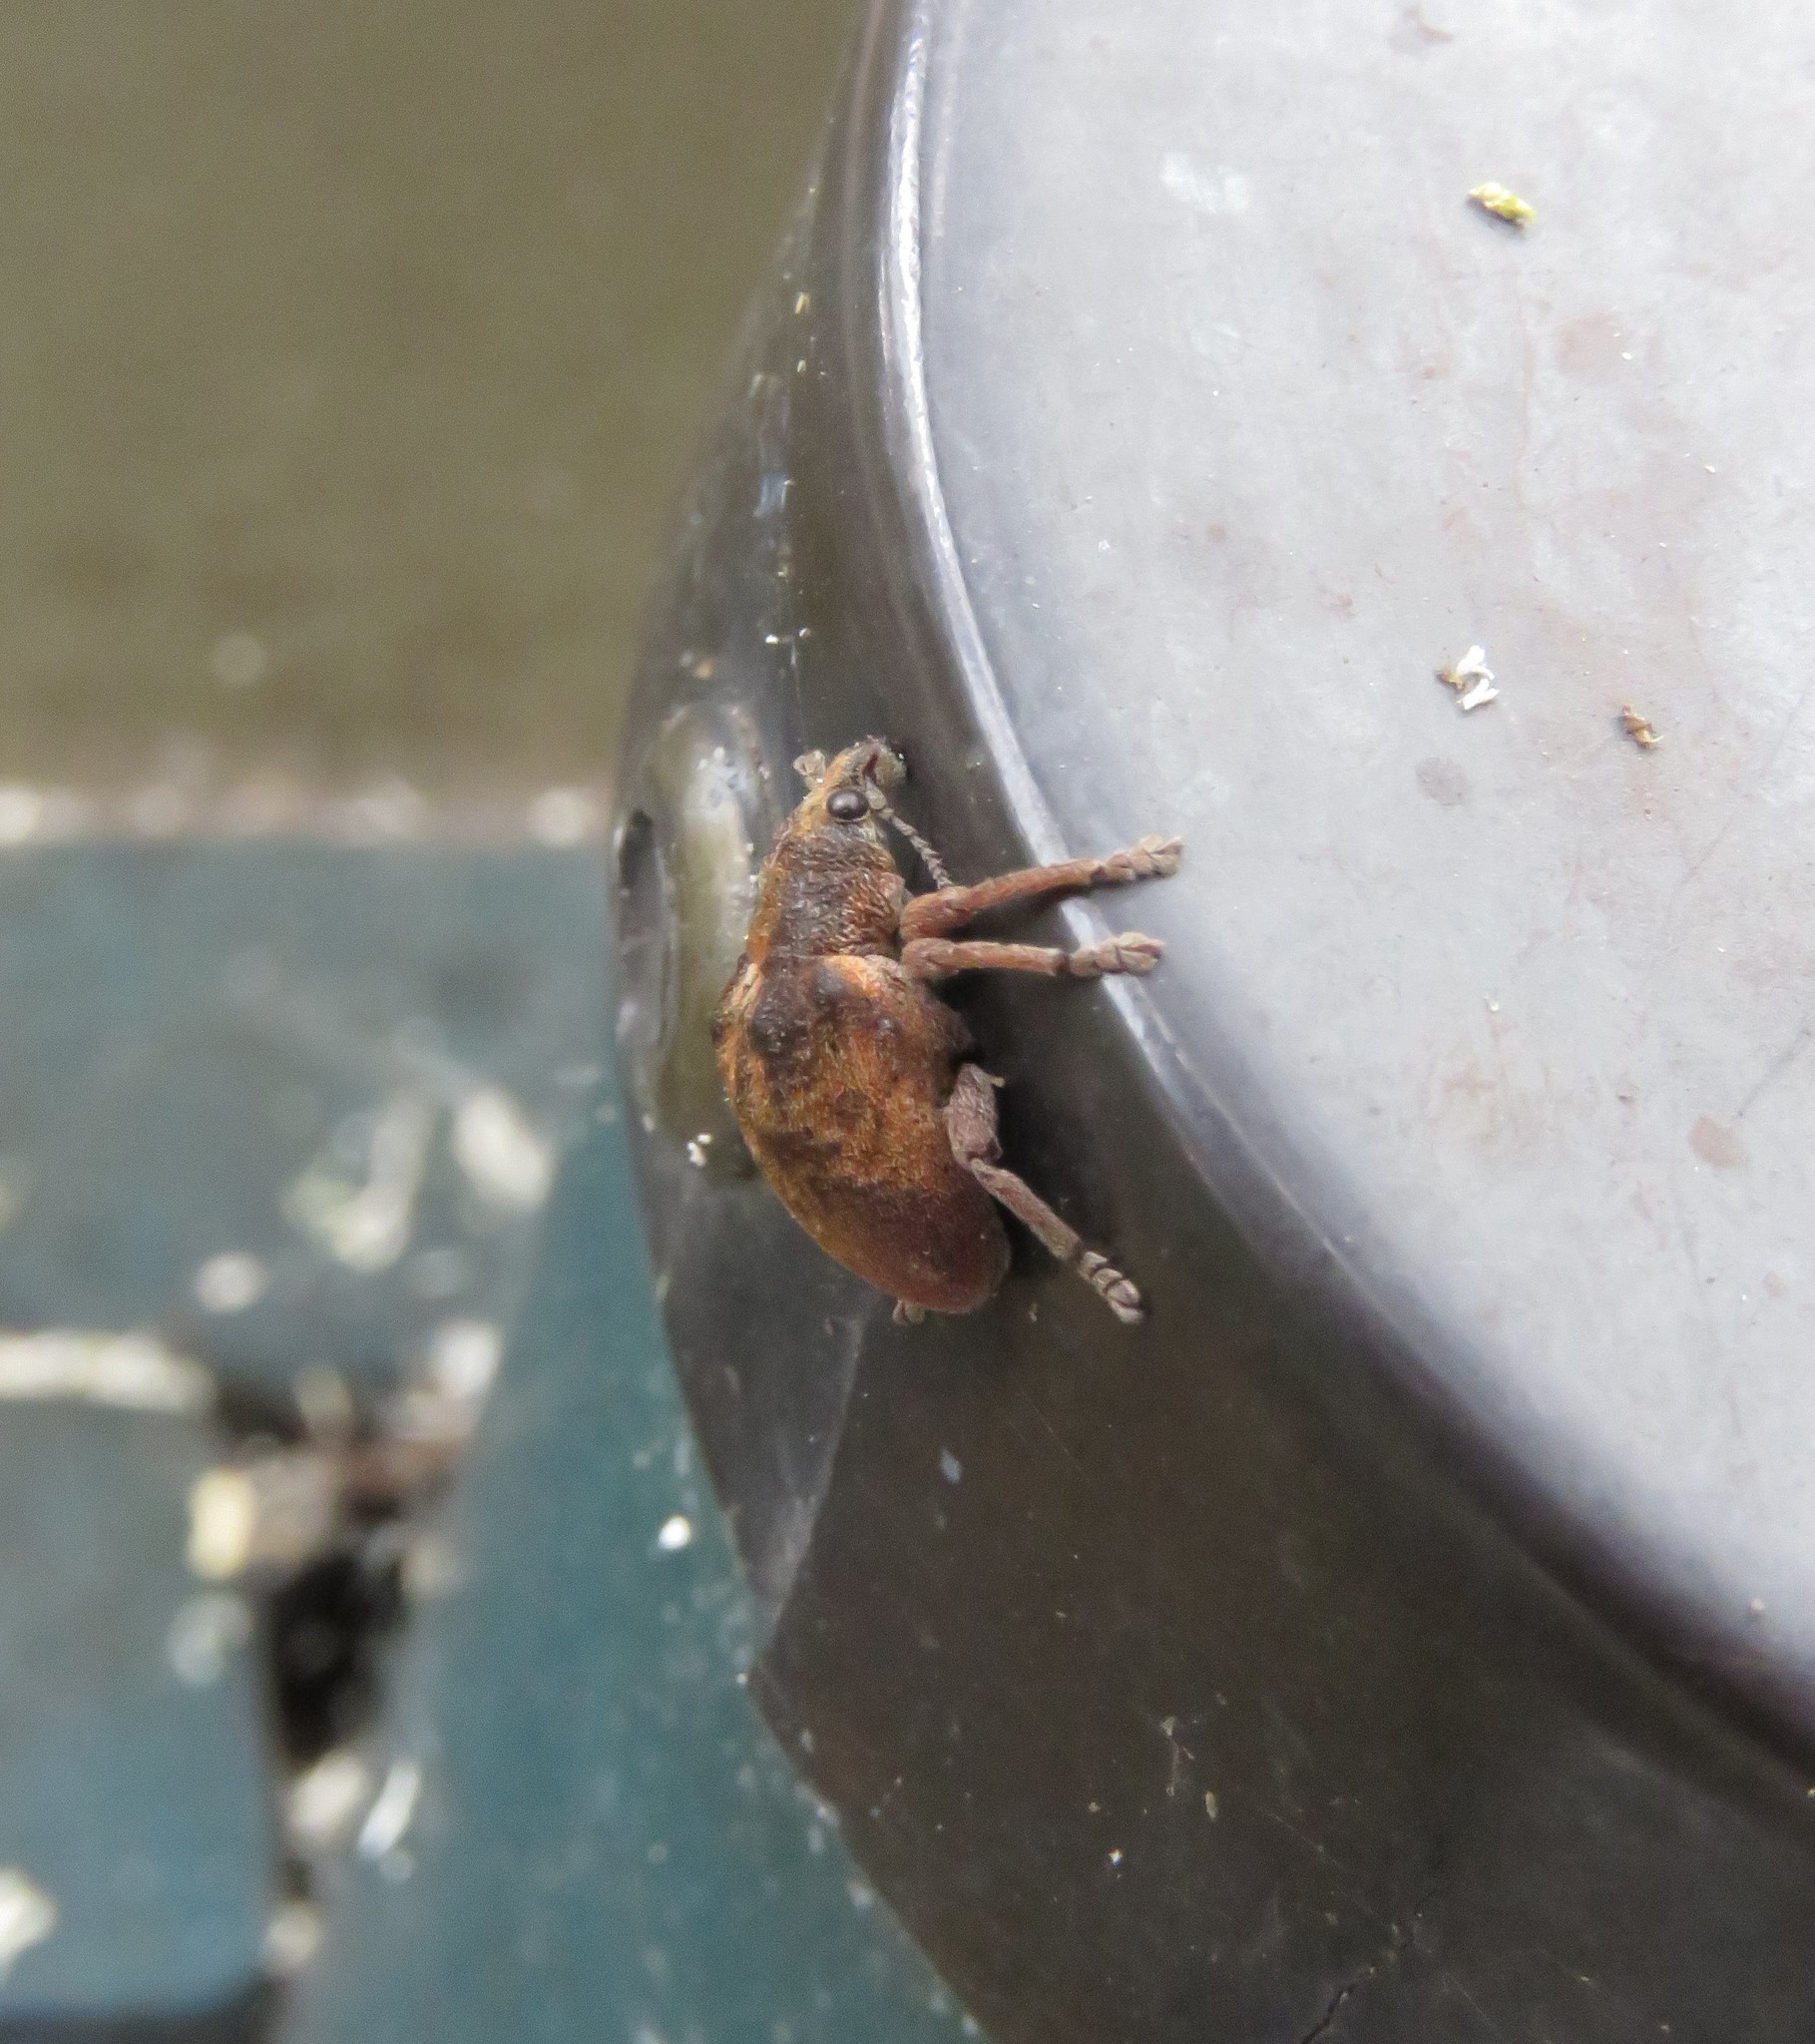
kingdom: Animalia
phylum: Arthropoda
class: Insecta
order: Coleoptera
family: Curculionidae
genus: Gonipterus
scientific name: Gonipterus platensis
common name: Eucalyptus snout beetle
